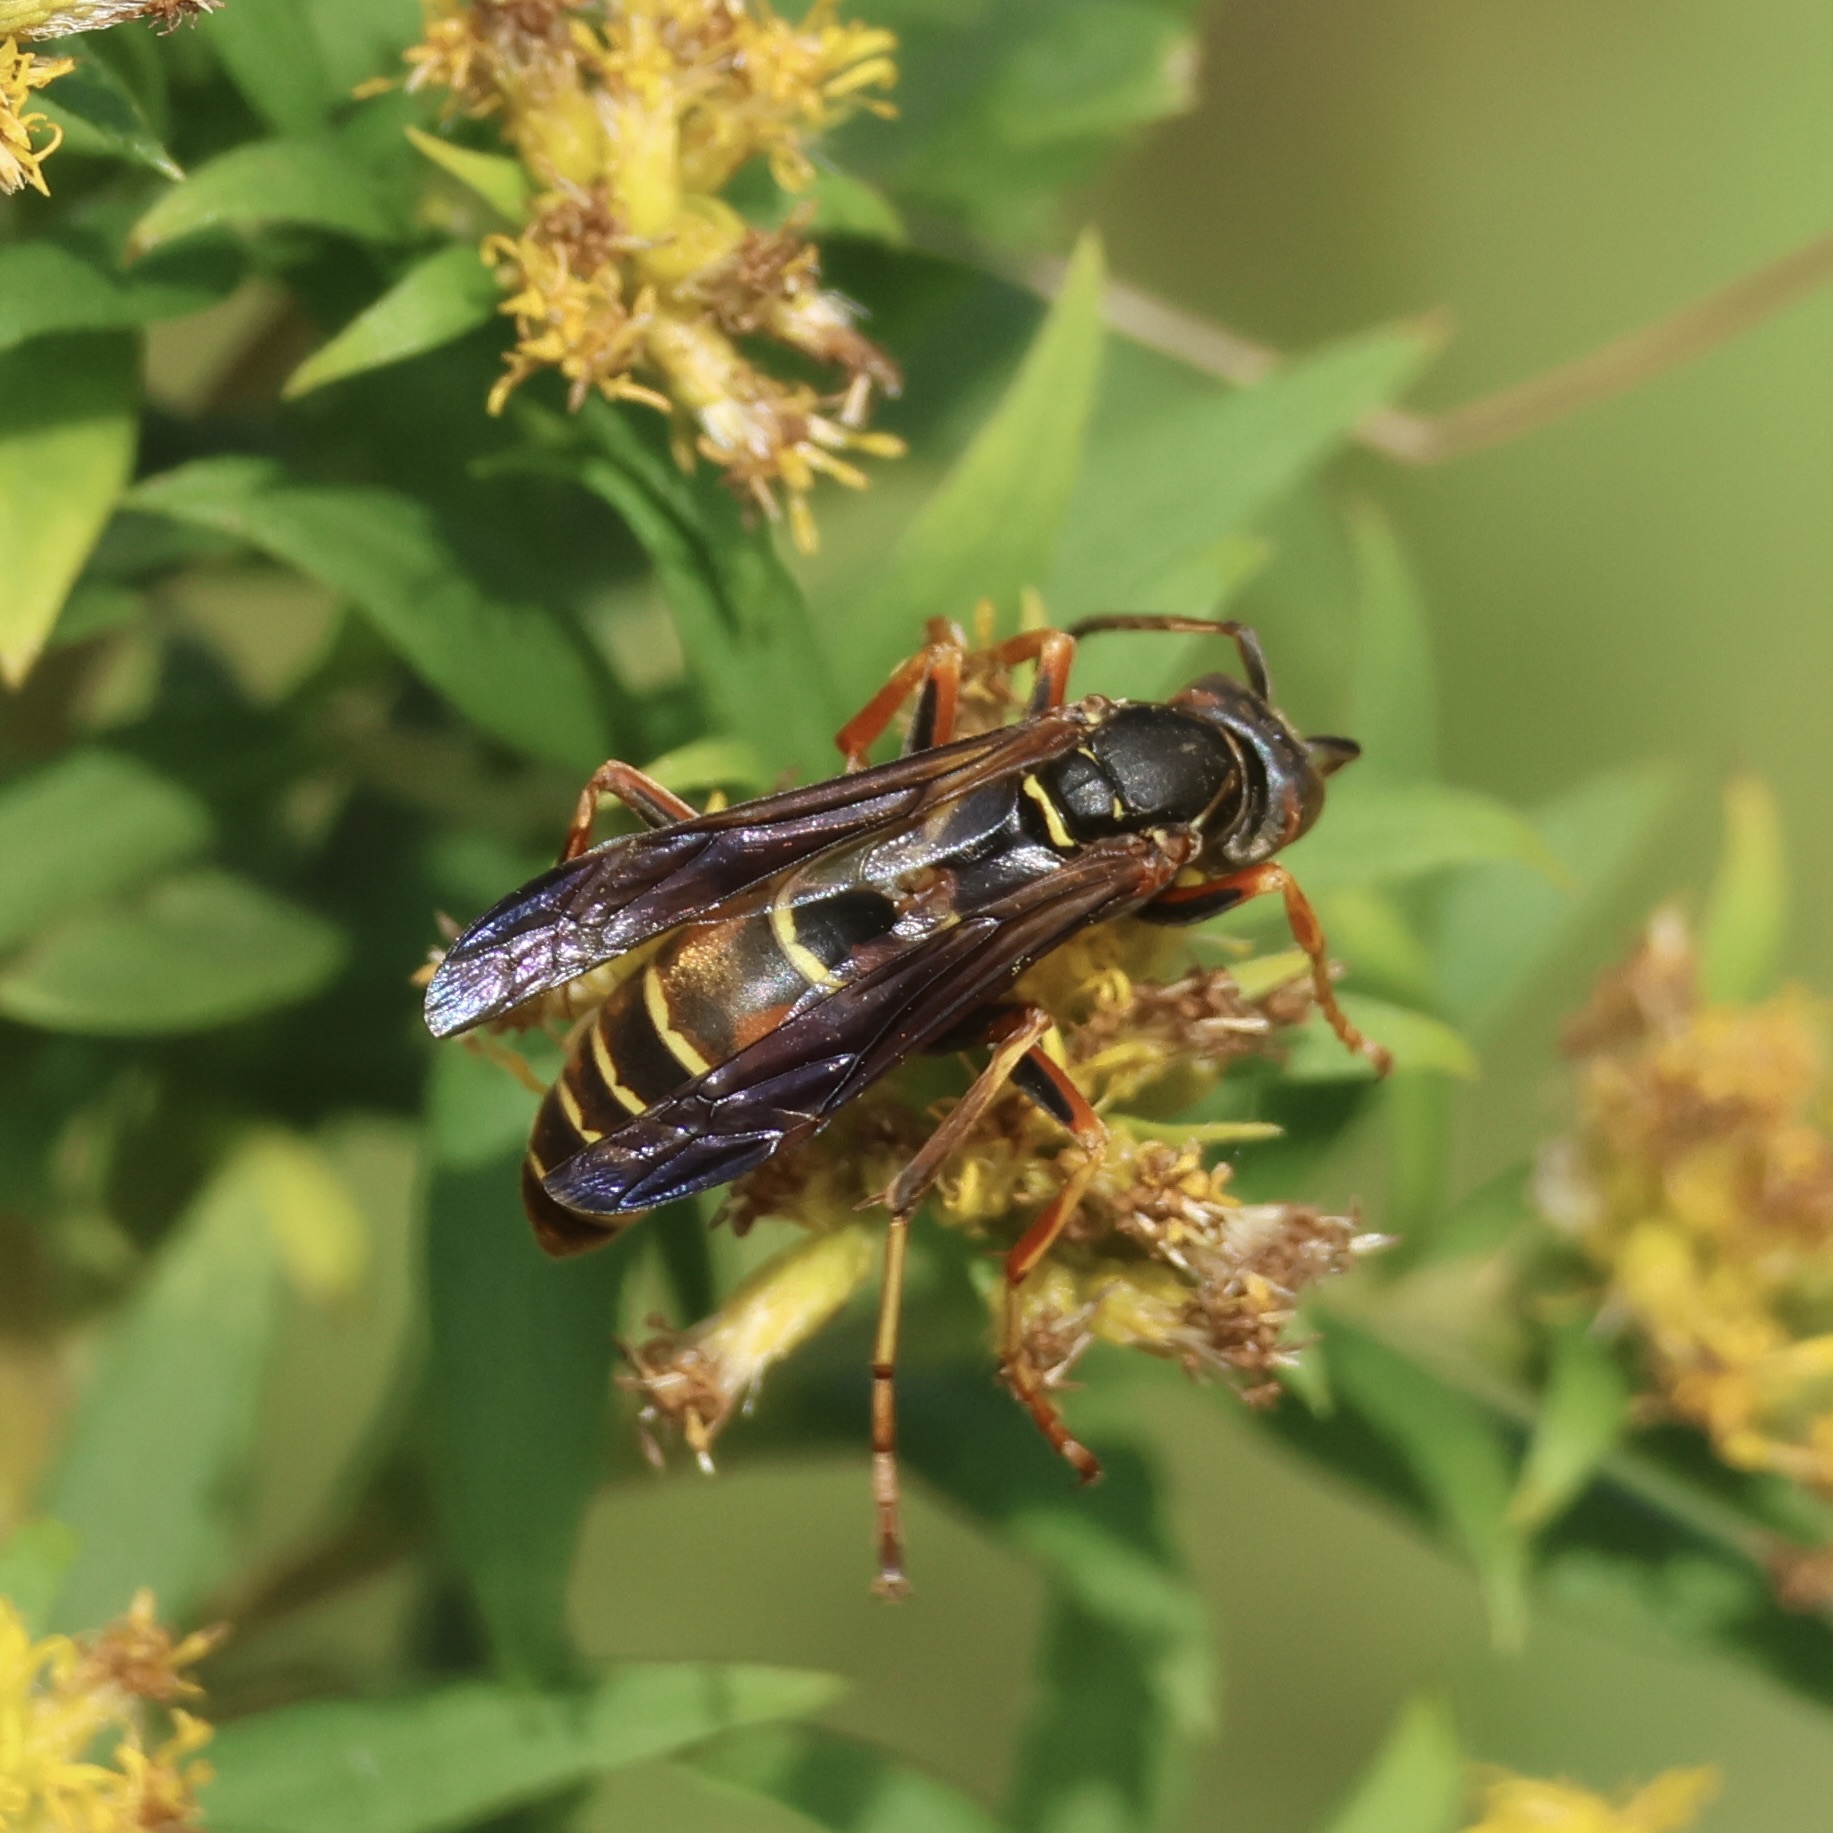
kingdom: Animalia
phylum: Arthropoda
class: Insecta
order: Hymenoptera
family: Eumenidae
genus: Polistes
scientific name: Polistes fuscatus
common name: Dark paper wasp
